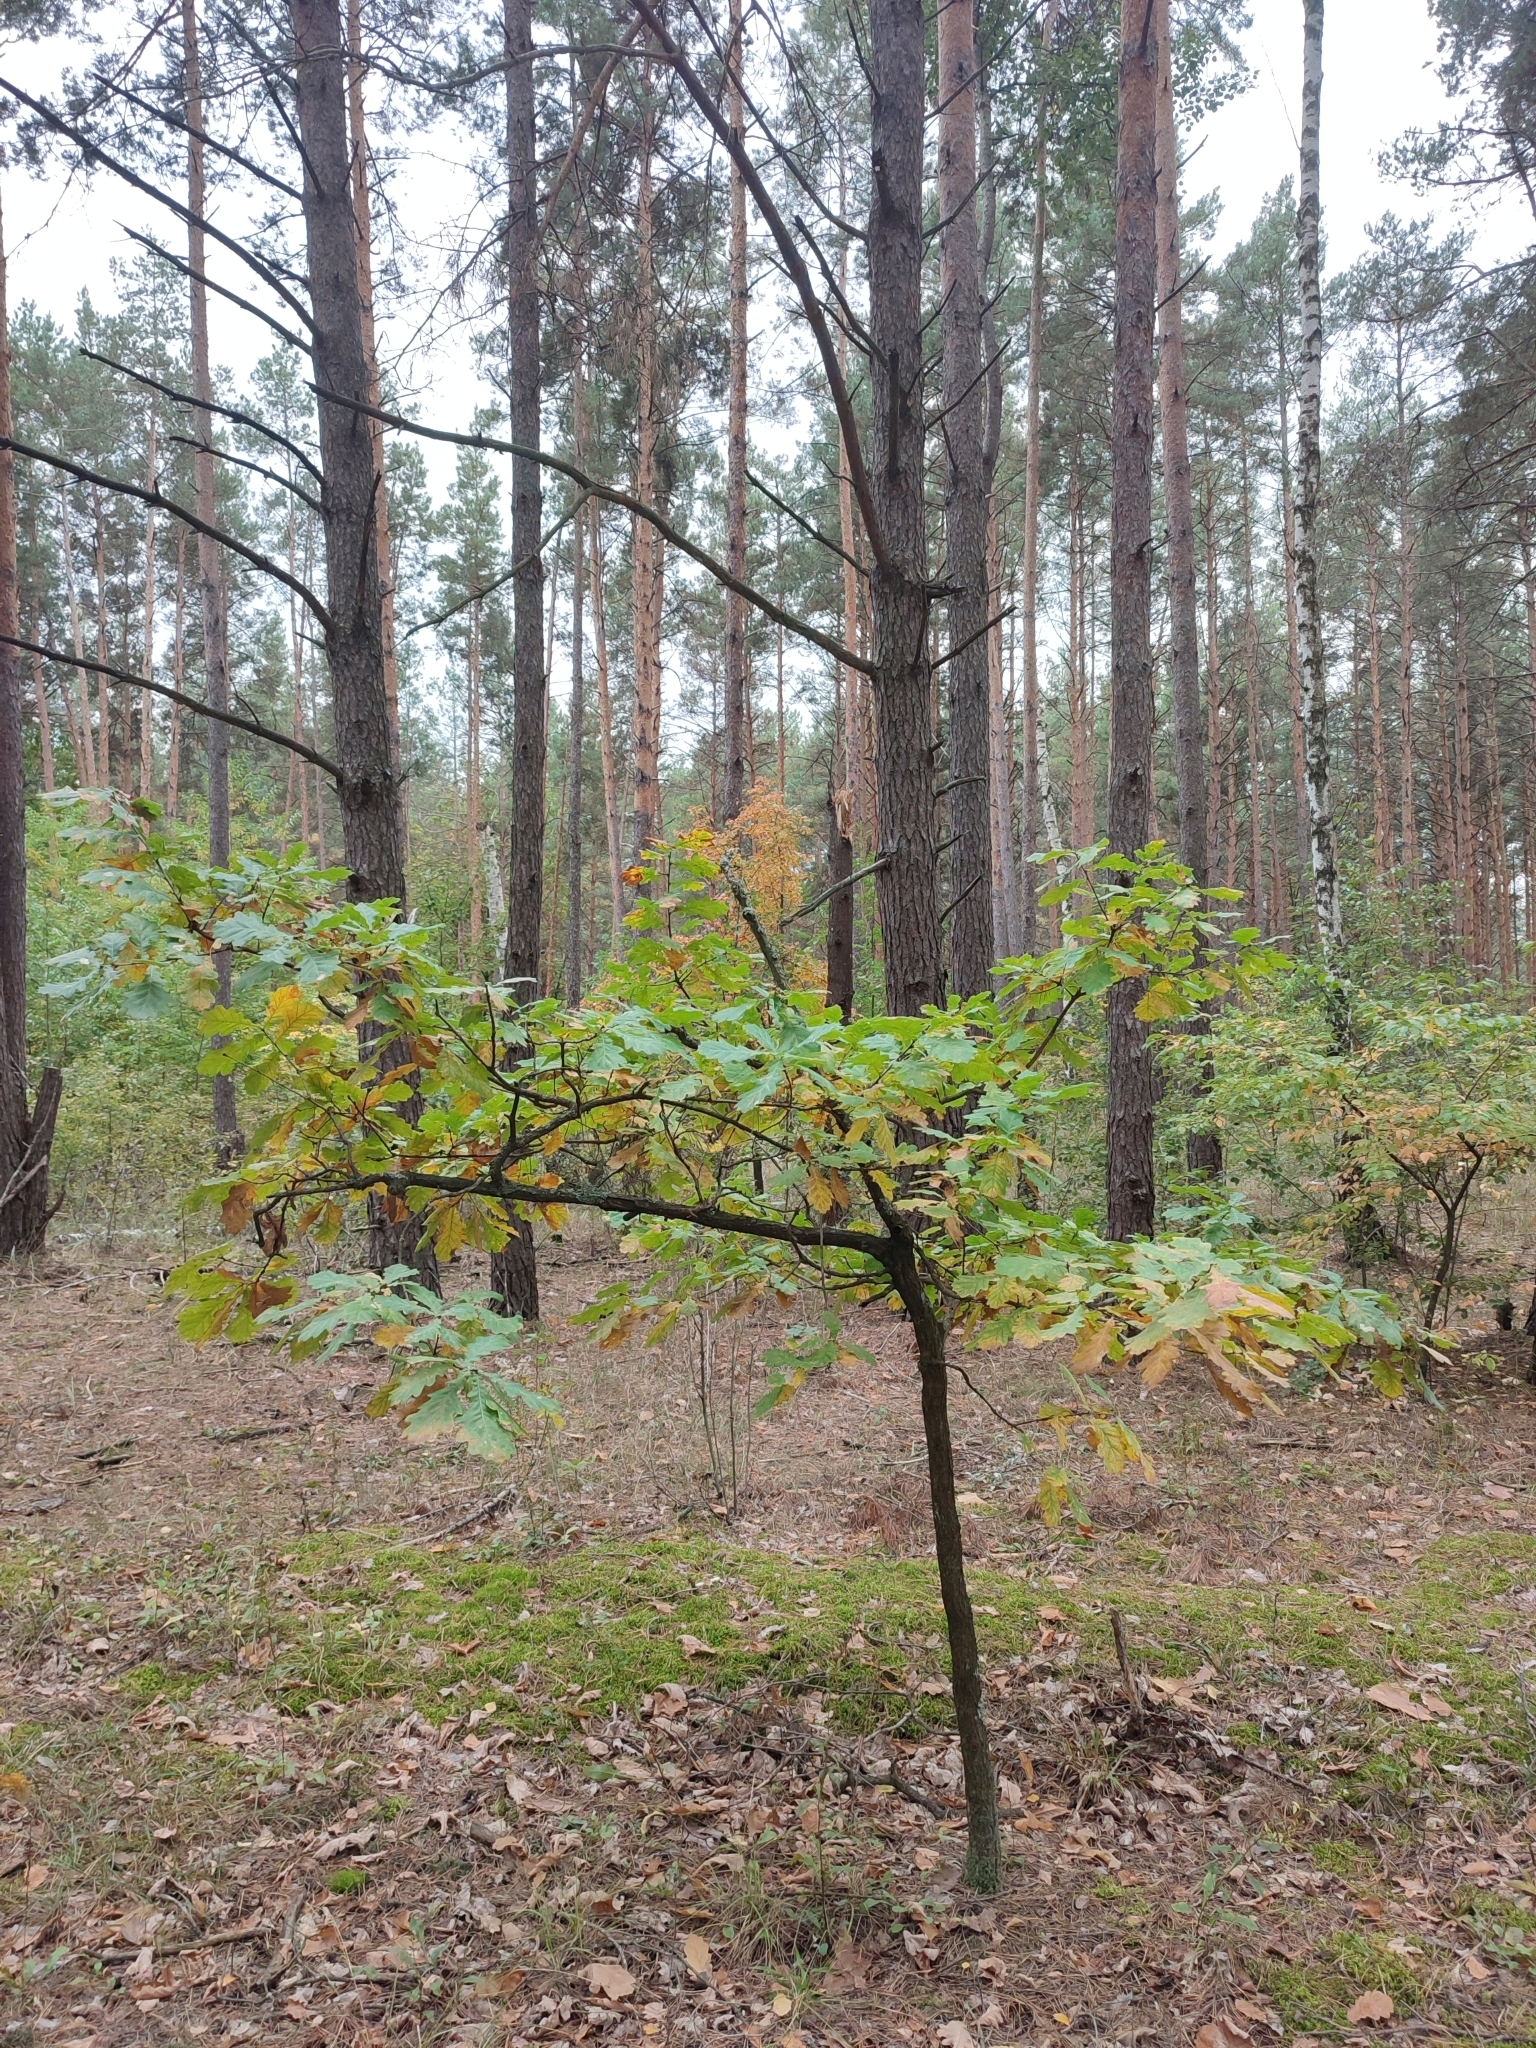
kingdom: Plantae
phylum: Tracheophyta
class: Magnoliopsida
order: Fagales
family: Fagaceae
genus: Quercus
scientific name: Quercus robur
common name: Pedunculate oak
